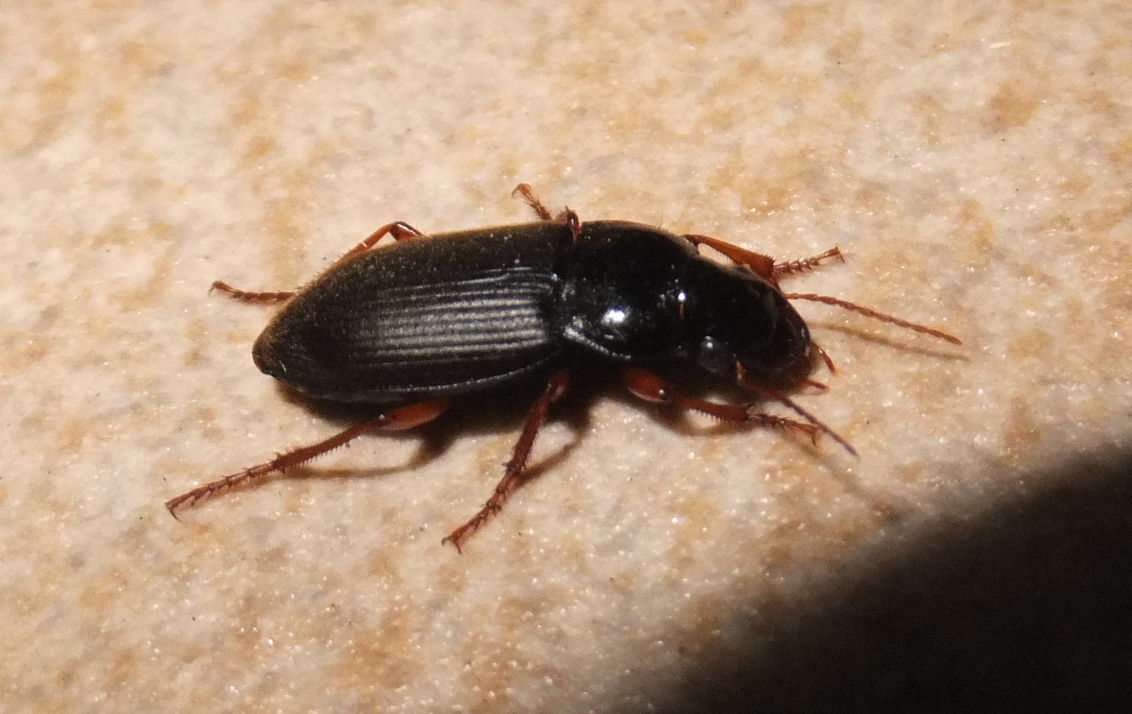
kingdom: Animalia
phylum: Arthropoda
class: Insecta
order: Coleoptera
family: Carabidae
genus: Harpalus
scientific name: Harpalus rufipes
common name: Strawberry harp ground beetle
